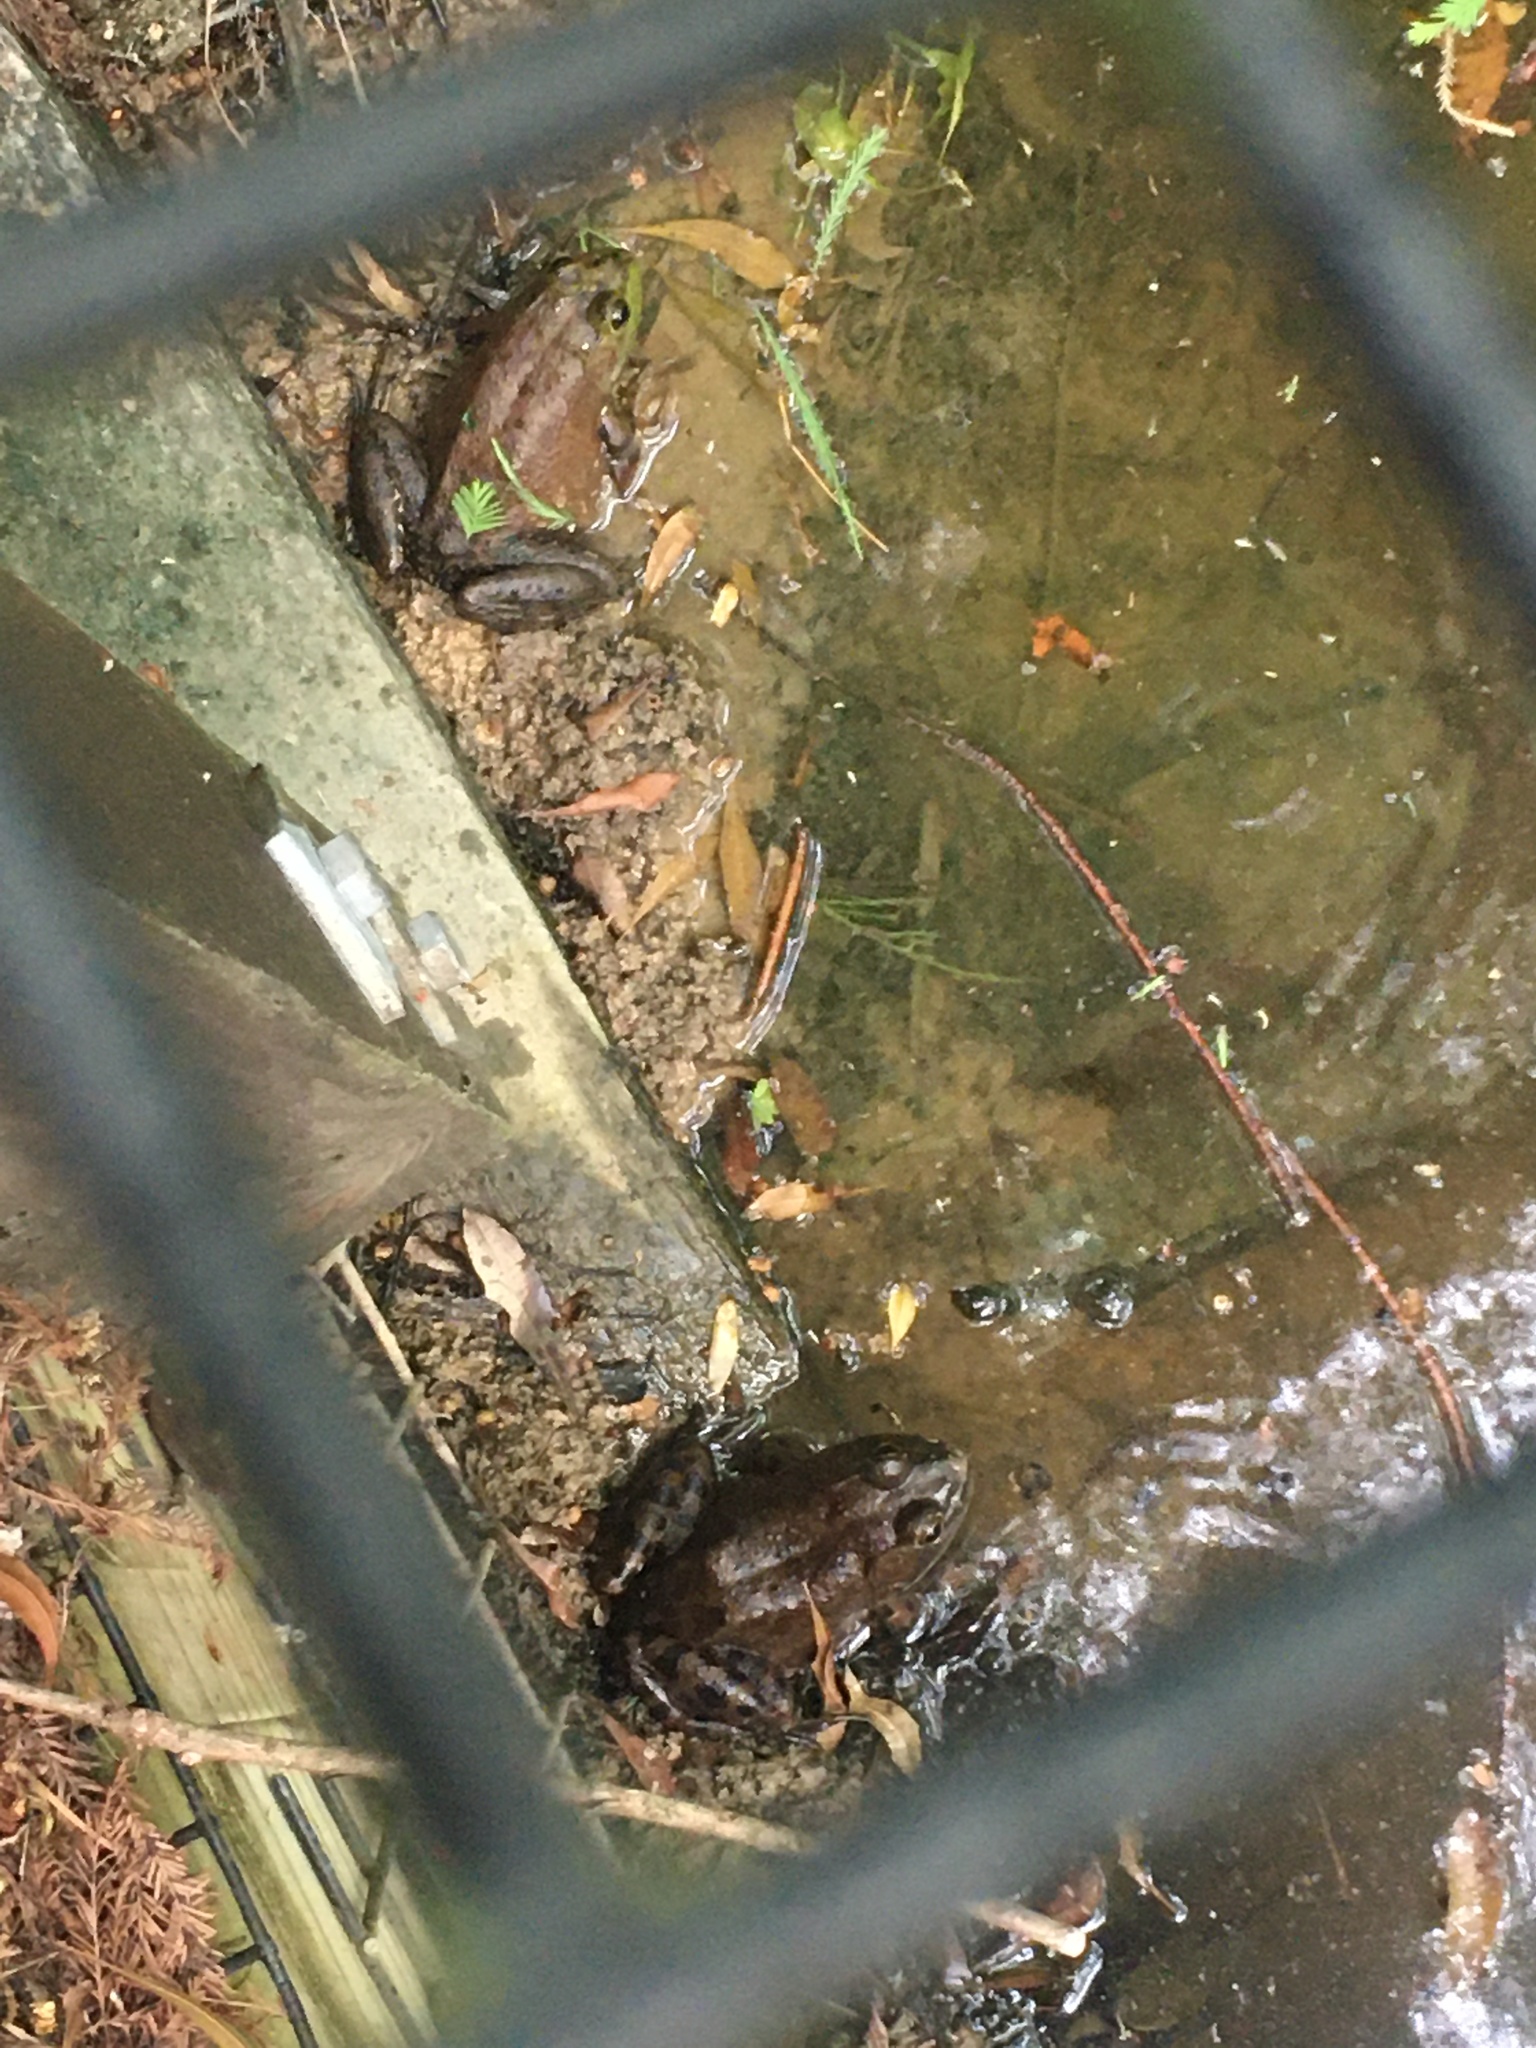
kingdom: Animalia
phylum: Chordata
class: Amphibia
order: Anura
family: Ranidae
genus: Lithobates
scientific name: Lithobates catesbeianus
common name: American bullfrog
